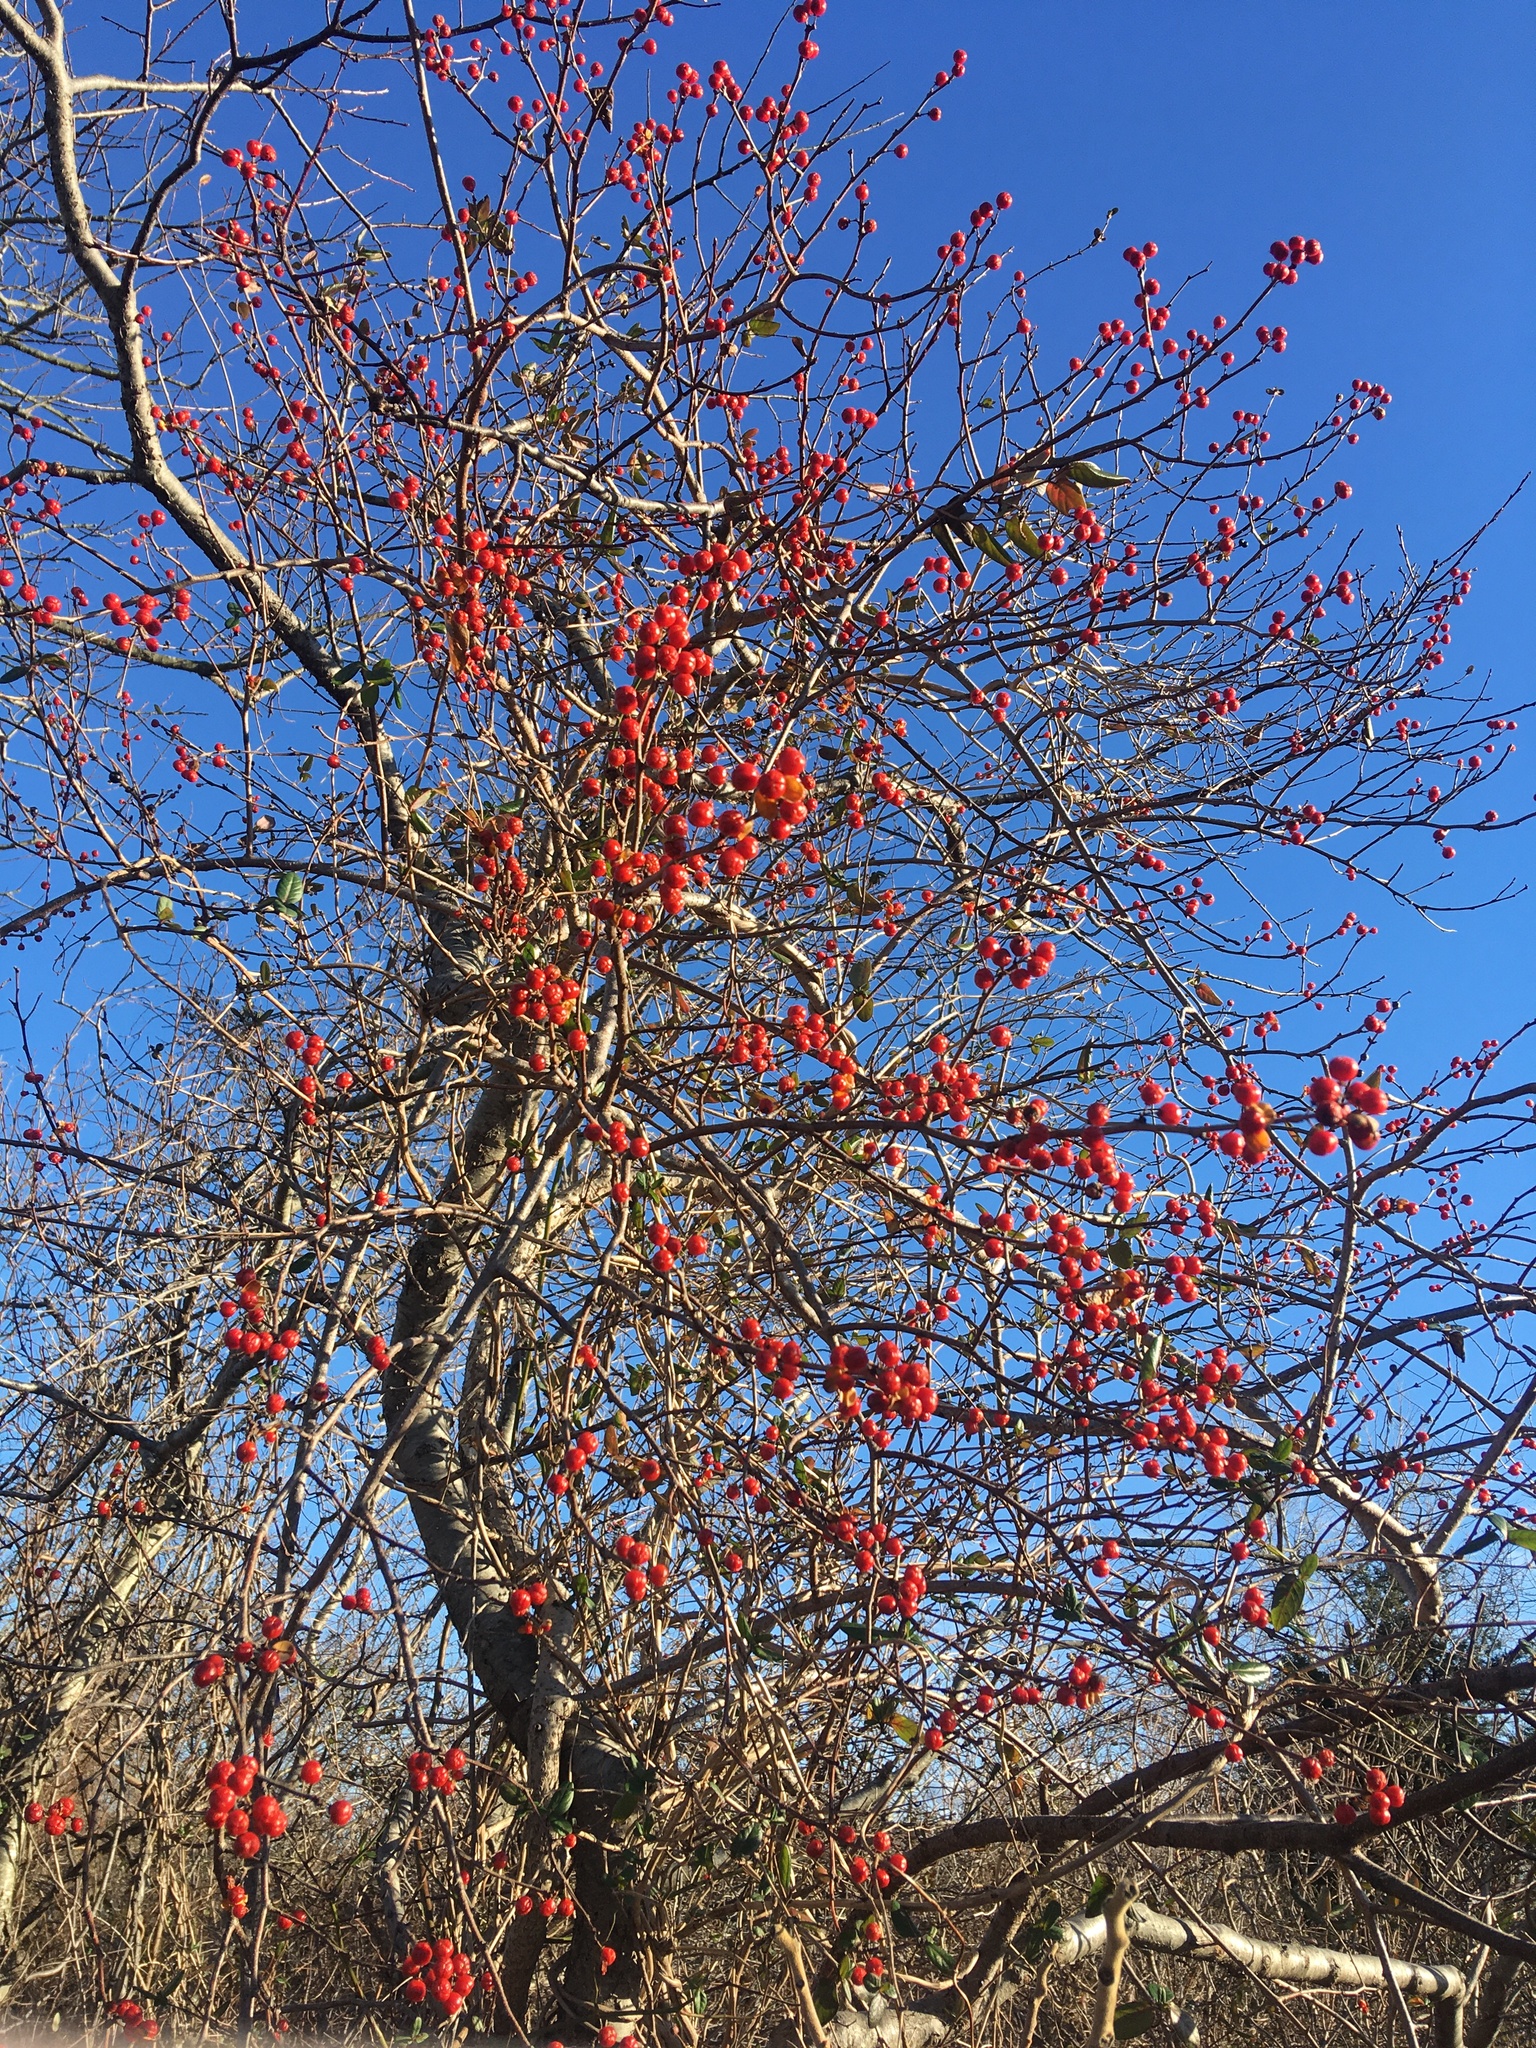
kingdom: Plantae
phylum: Tracheophyta
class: Magnoliopsida
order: Celastrales
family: Celastraceae
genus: Celastrus
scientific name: Celastrus orbiculatus
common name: Oriental bittersweet
